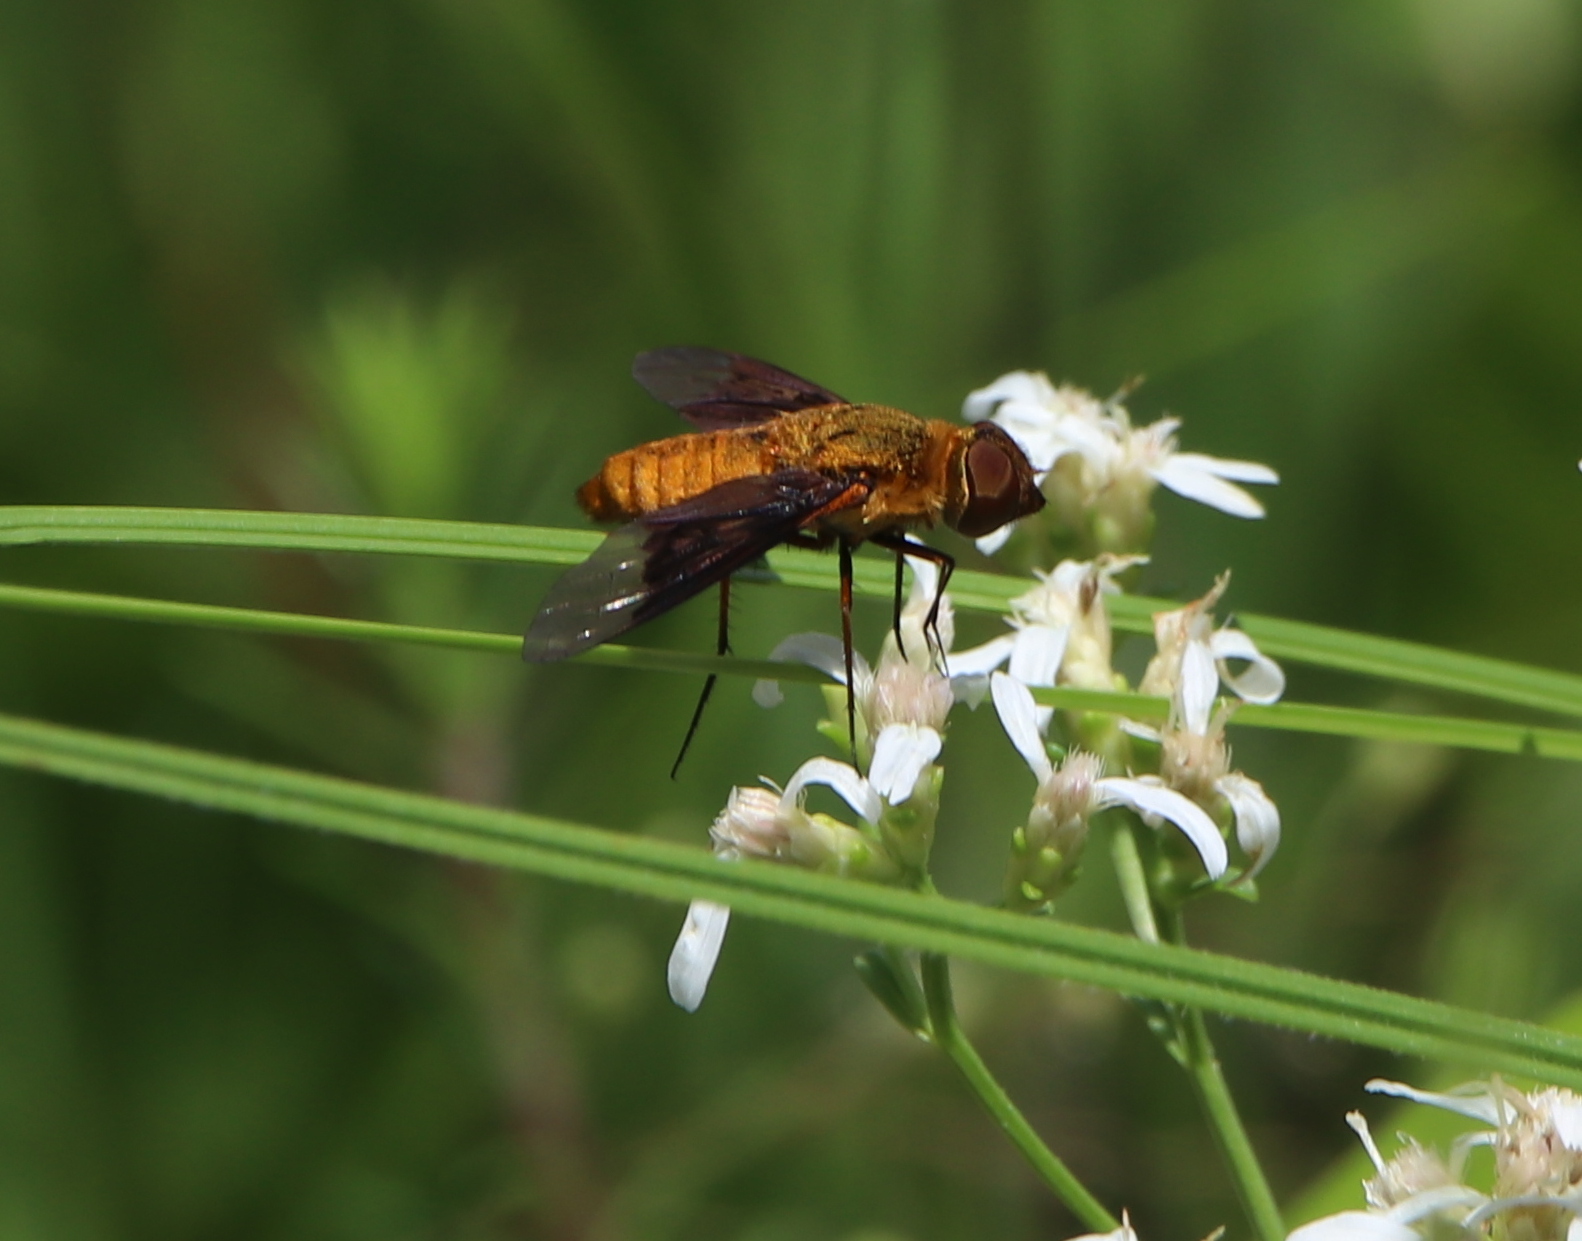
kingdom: Animalia
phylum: Arthropoda
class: Insecta
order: Diptera
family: Bombyliidae
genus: Chrysanthrax
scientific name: Chrysanthrax cypris
